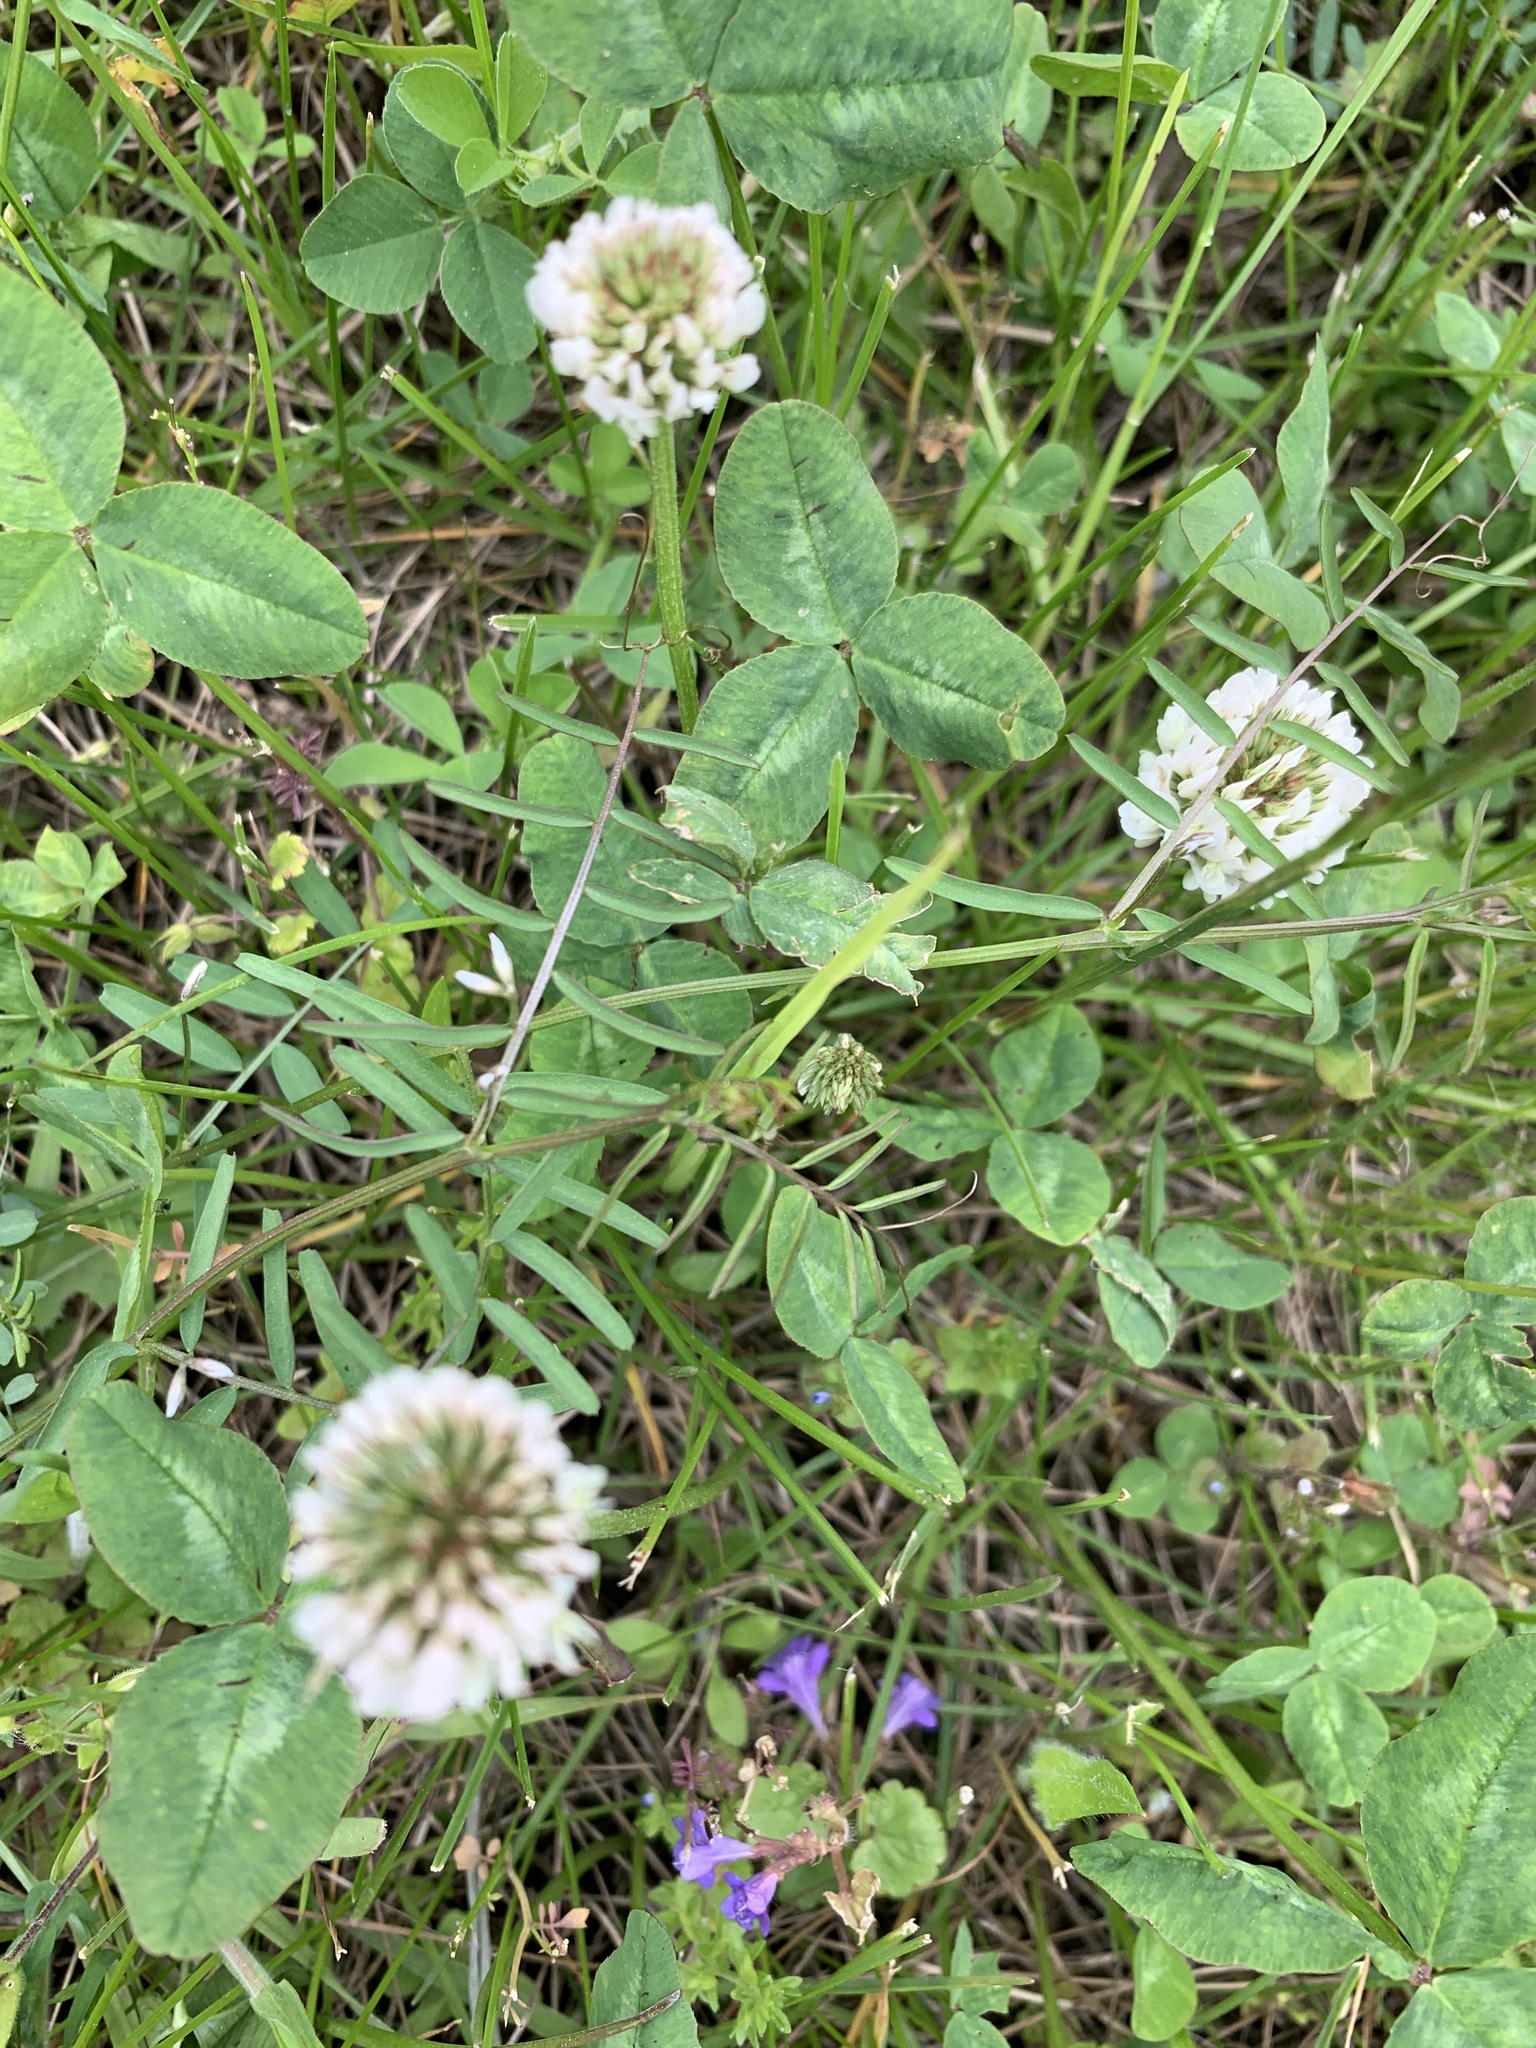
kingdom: Plantae
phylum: Tracheophyta
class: Magnoliopsida
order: Fabales
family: Fabaceae
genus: Trifolium
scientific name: Trifolium repens
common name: White clover
